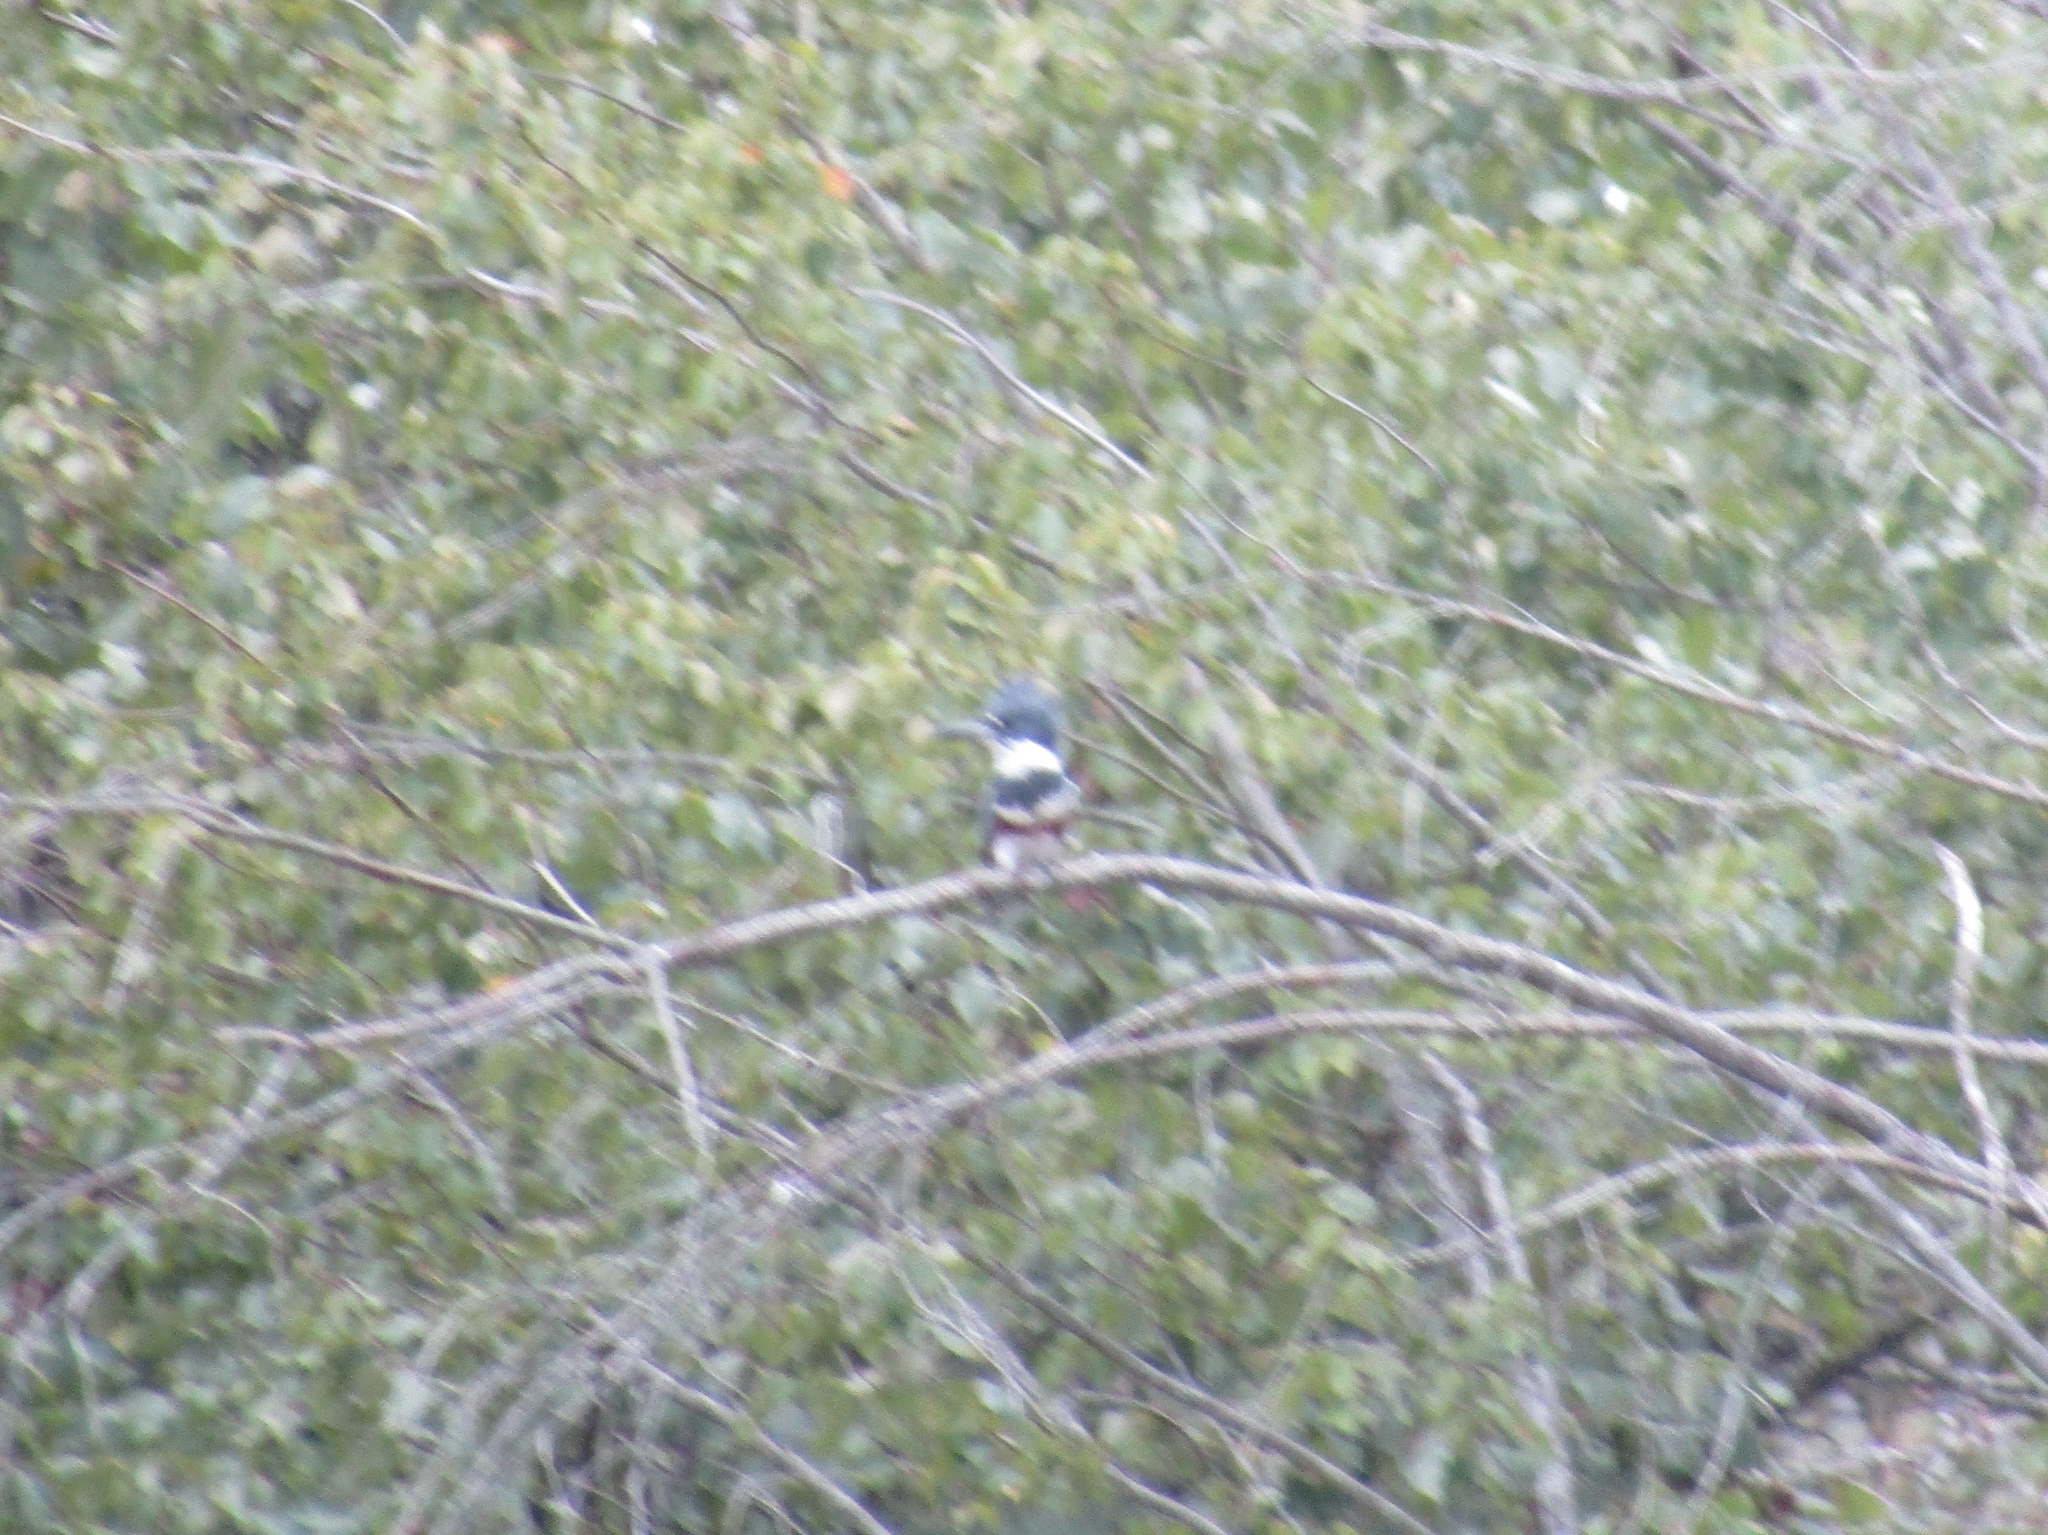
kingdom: Animalia
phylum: Chordata
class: Aves
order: Coraciiformes
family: Alcedinidae
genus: Megaceryle
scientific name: Megaceryle alcyon
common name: Belted kingfisher
